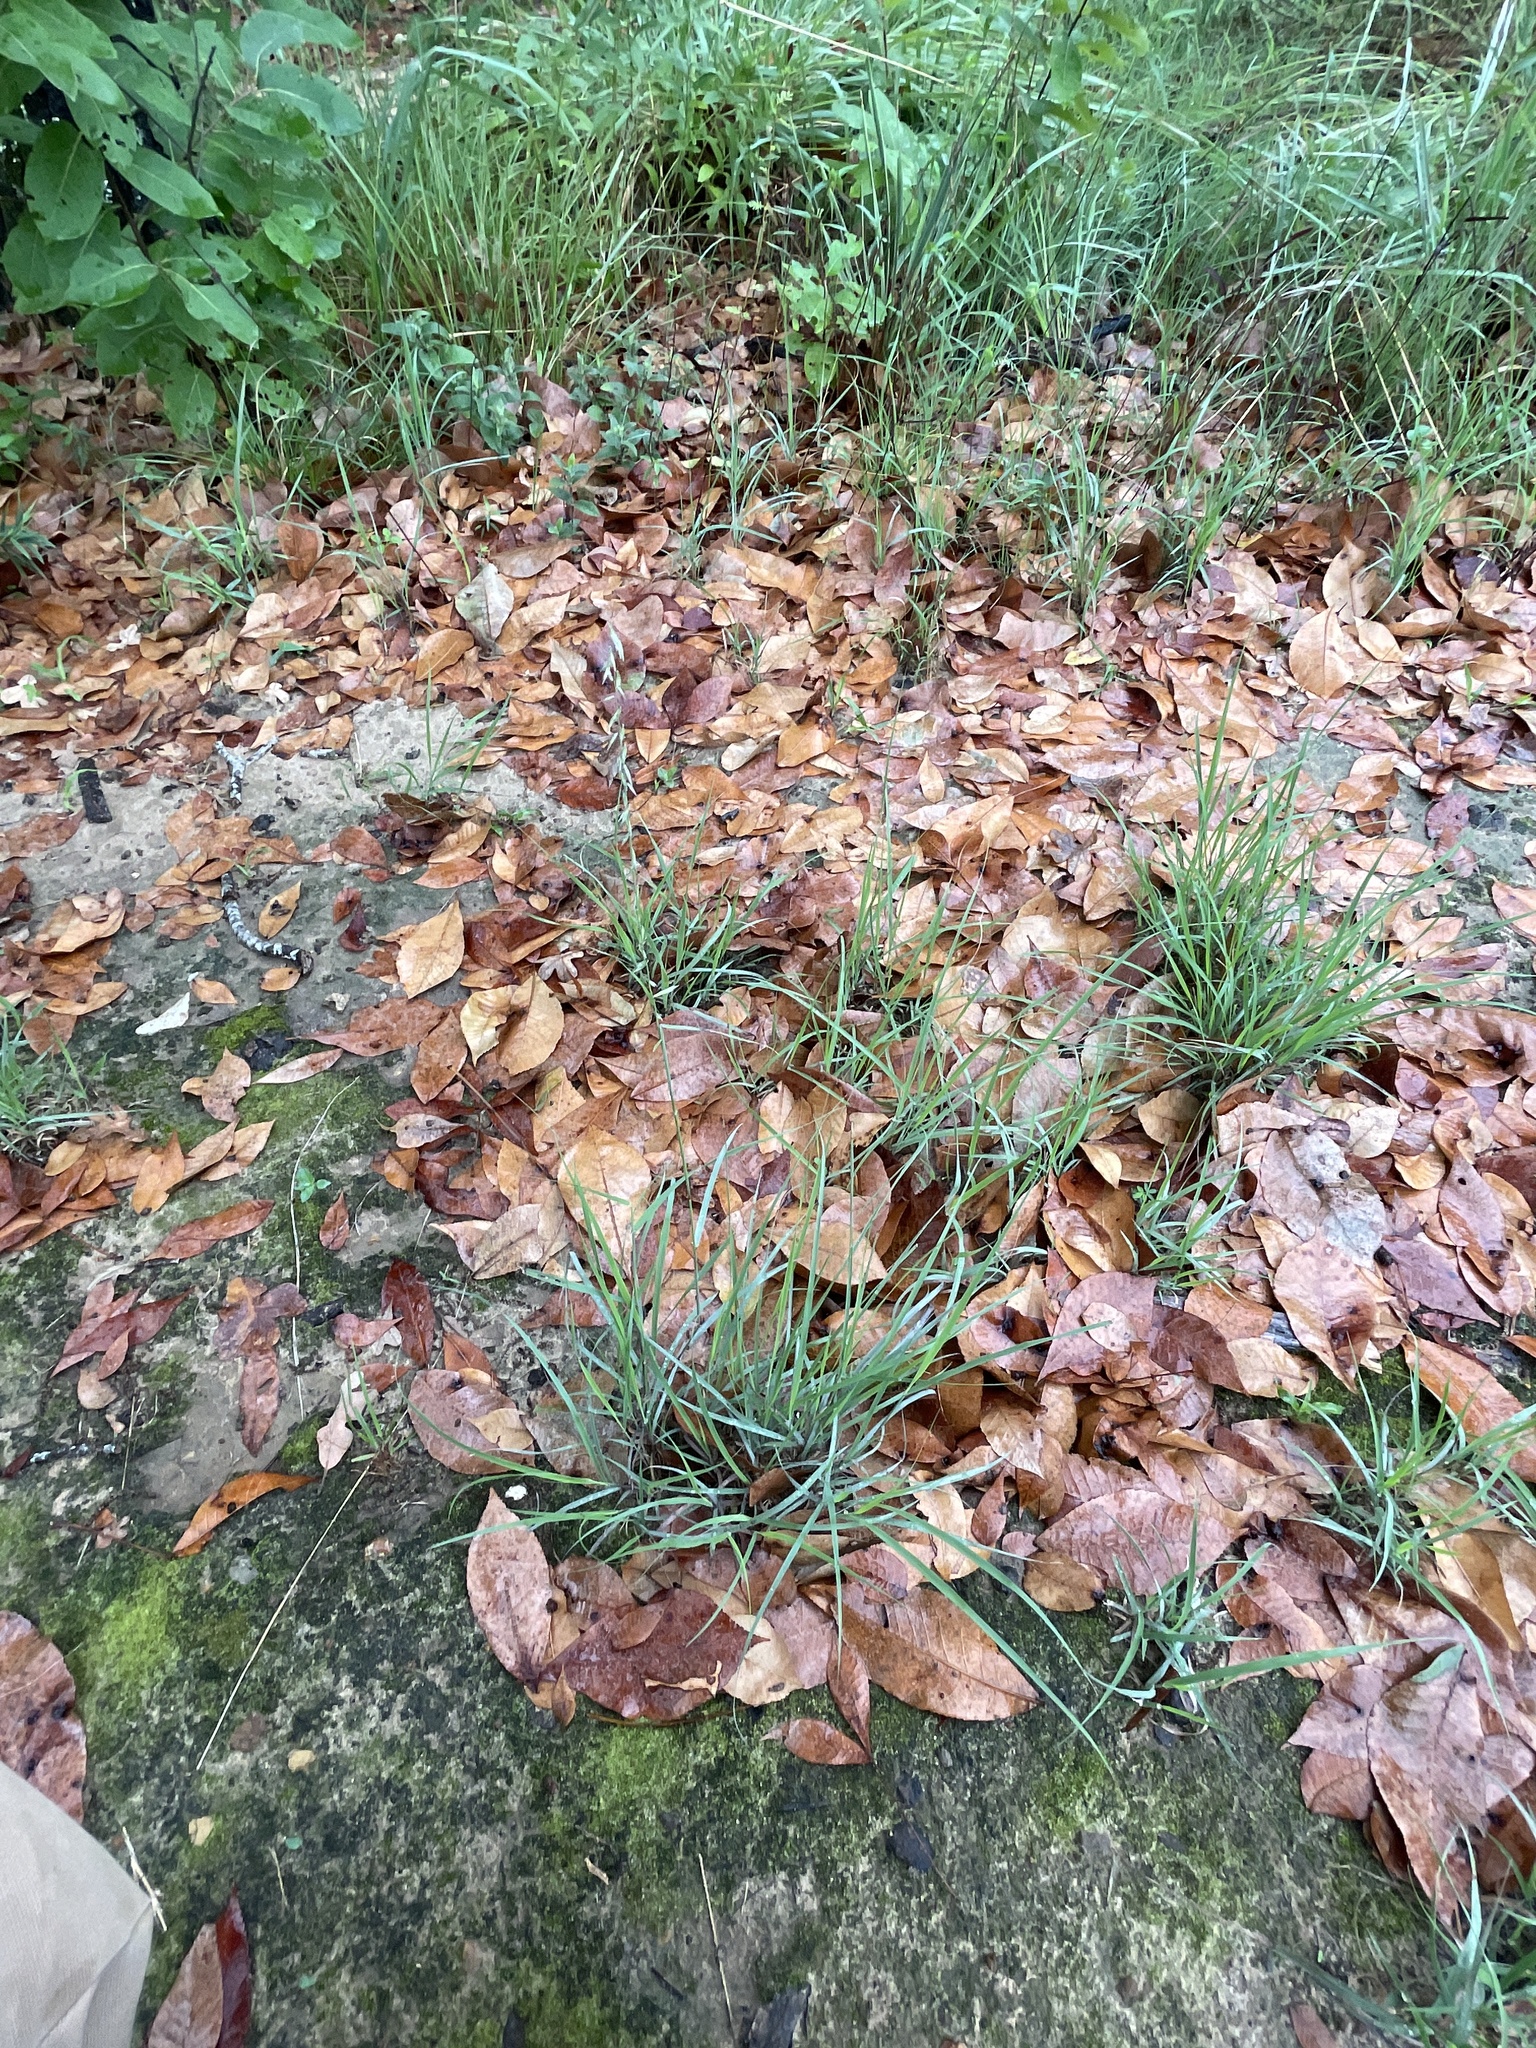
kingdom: Plantae
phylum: Tracheophyta
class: Liliopsida
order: Poales
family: Poaceae
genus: Bouteloua
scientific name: Bouteloua curtipendula
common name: Side-oats grama
